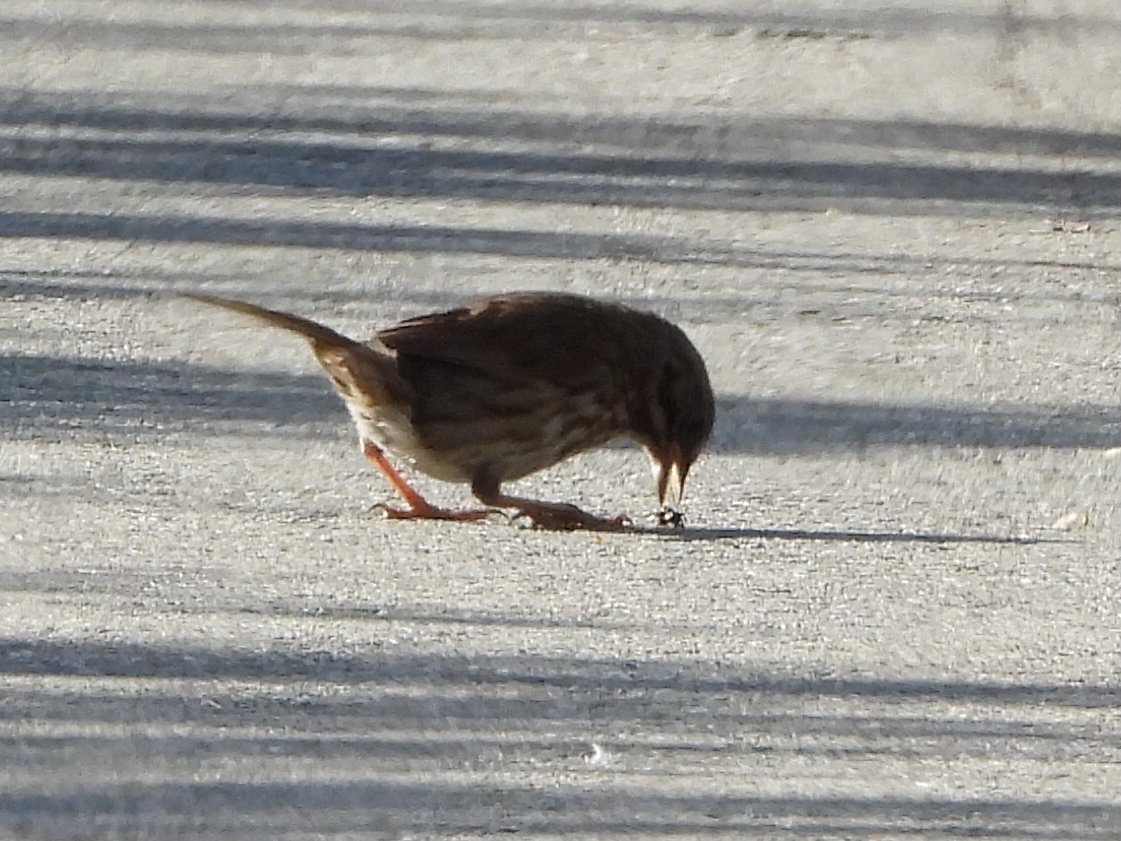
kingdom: Animalia
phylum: Chordata
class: Aves
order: Passeriformes
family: Passerellidae
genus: Melospiza
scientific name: Melospiza melodia
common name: Song sparrow
